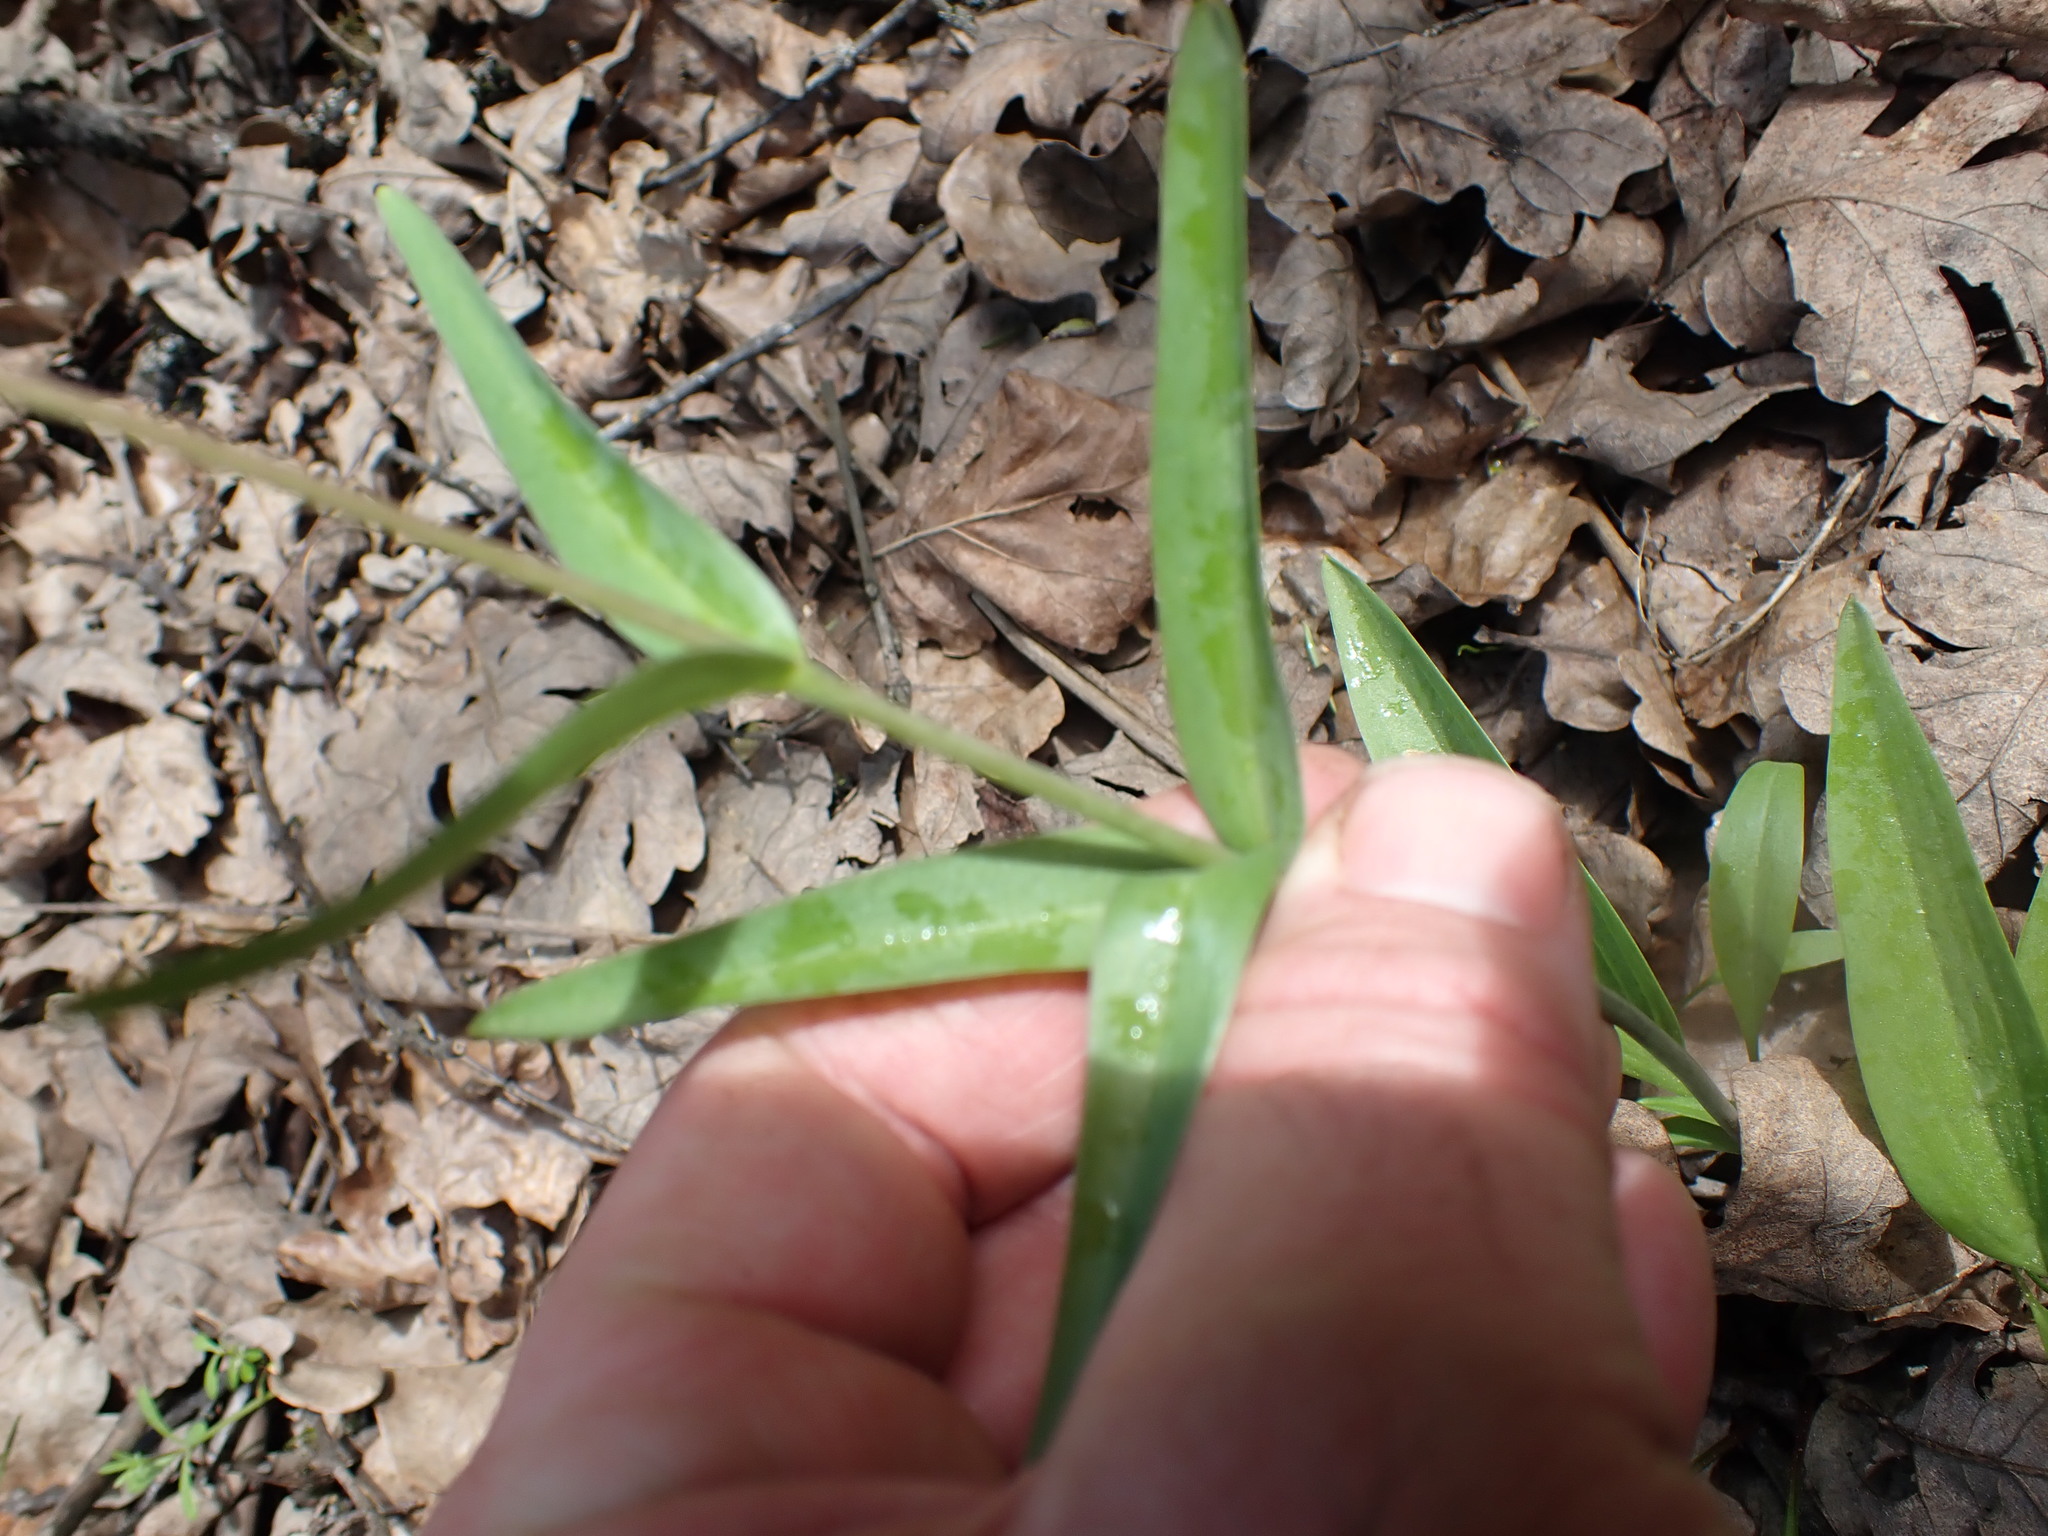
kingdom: Plantae
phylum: Tracheophyta
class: Liliopsida
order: Liliales
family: Liliaceae
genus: Fritillaria
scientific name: Fritillaria affinis
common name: Ojai fritillary
